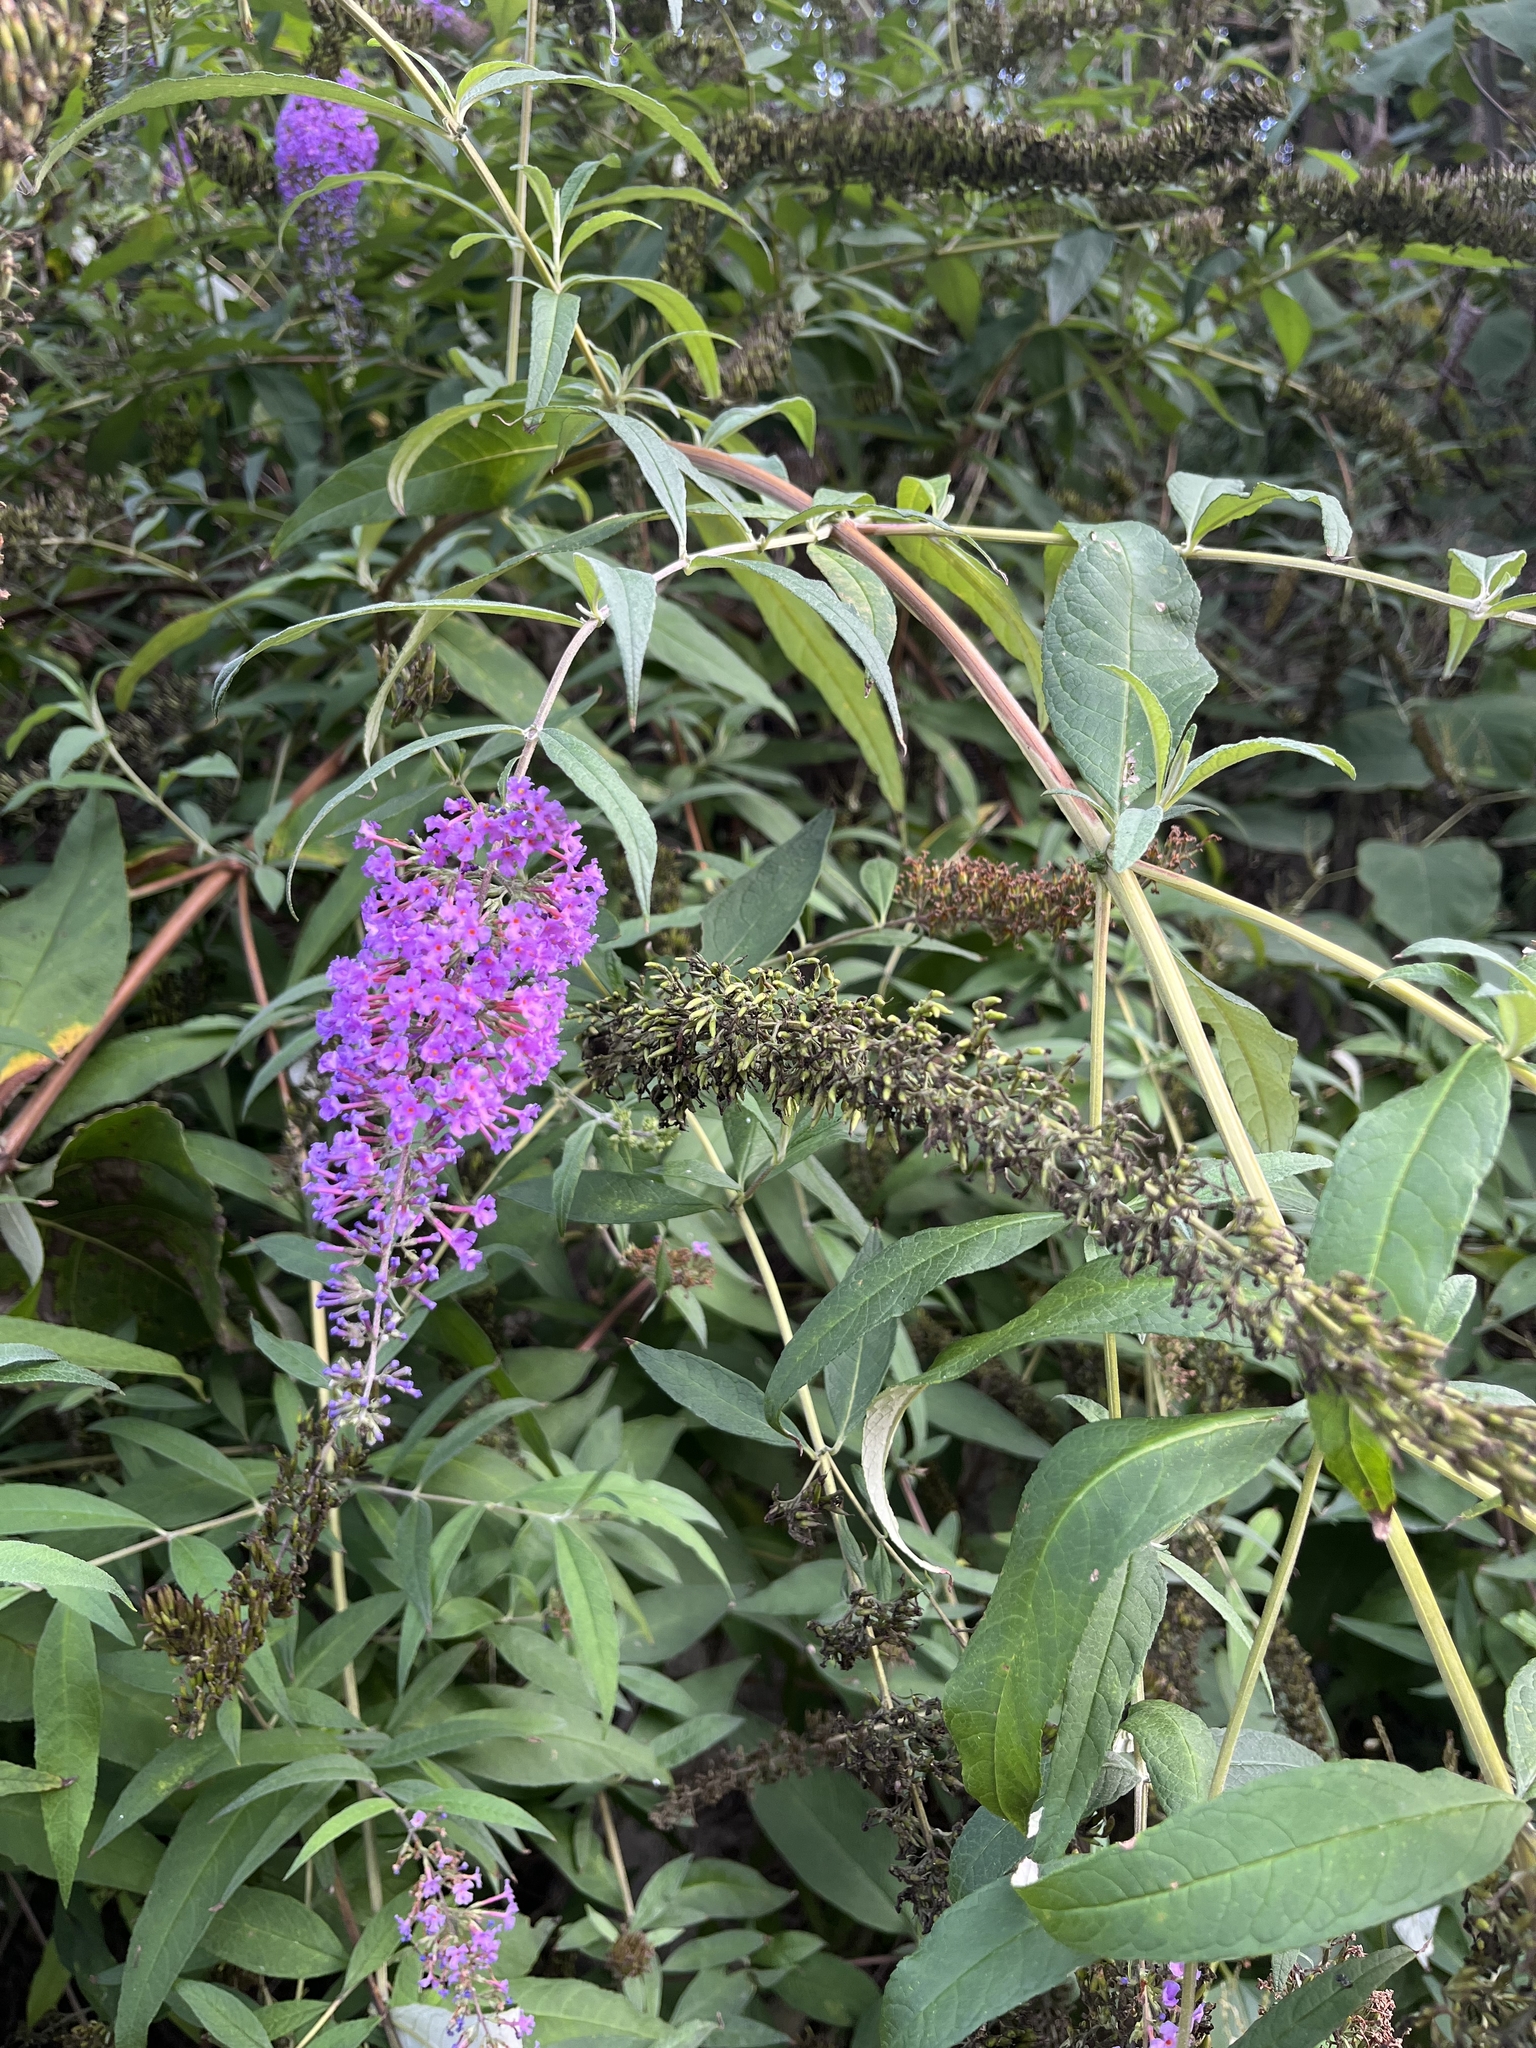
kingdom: Plantae
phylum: Tracheophyta
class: Magnoliopsida
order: Lamiales
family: Scrophulariaceae
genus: Buddleja
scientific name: Buddleja davidii
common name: Butterfly-bush
